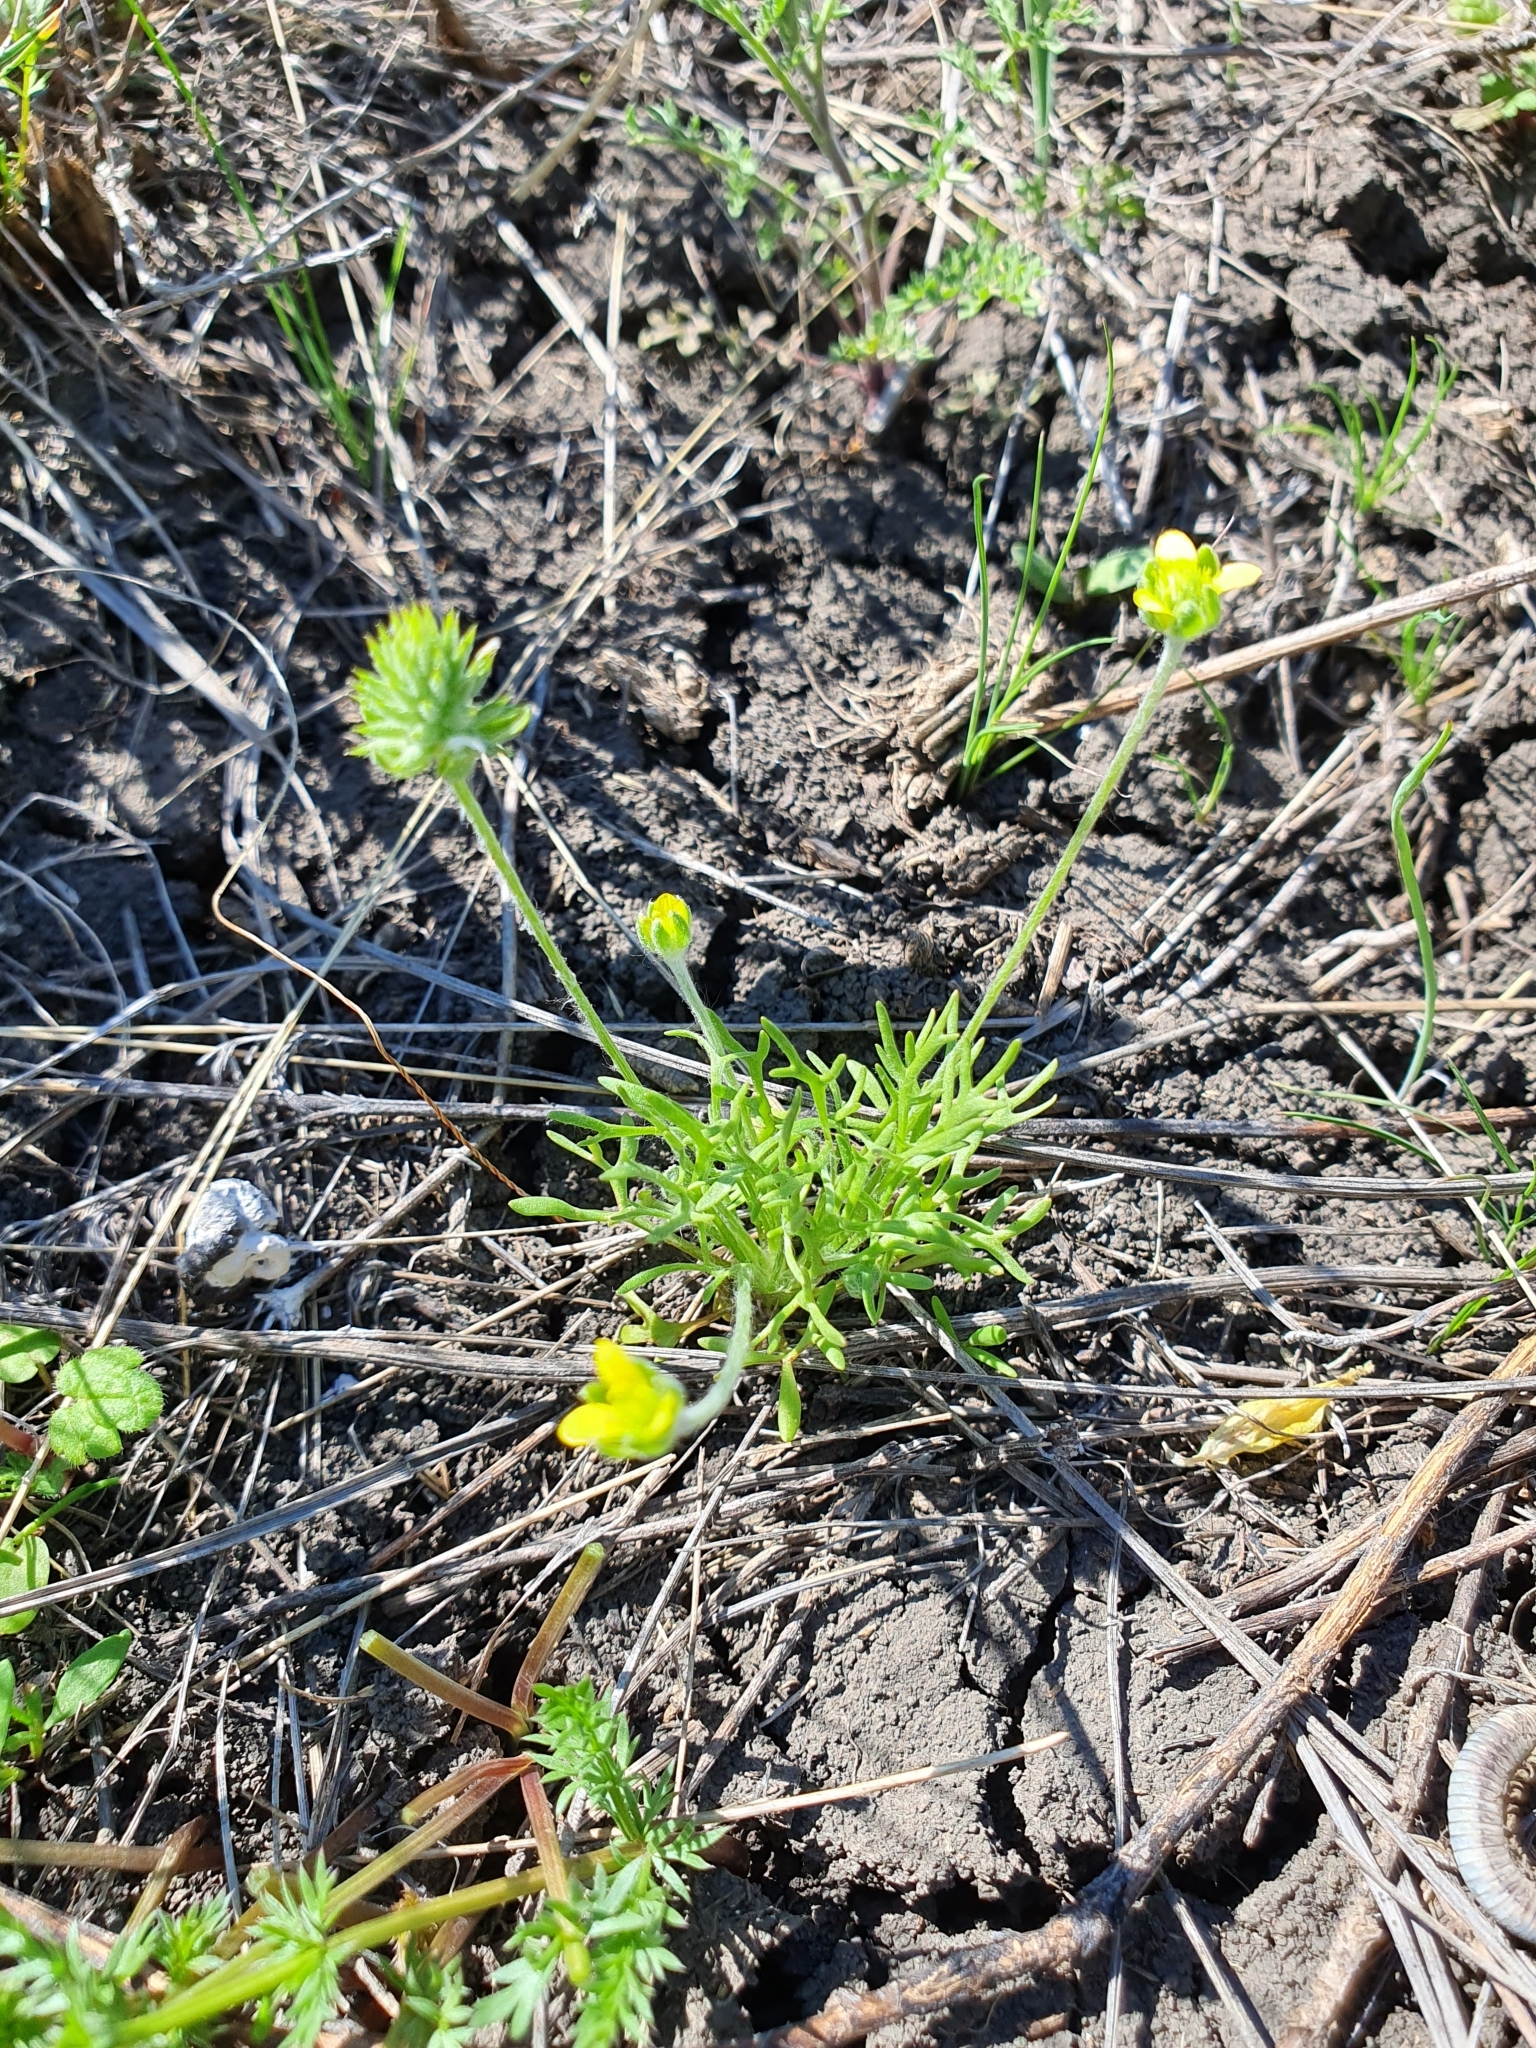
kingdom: Plantae
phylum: Tracheophyta
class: Magnoliopsida
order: Ranunculales
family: Ranunculaceae
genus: Ceratocephala
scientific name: Ceratocephala orthoceras
